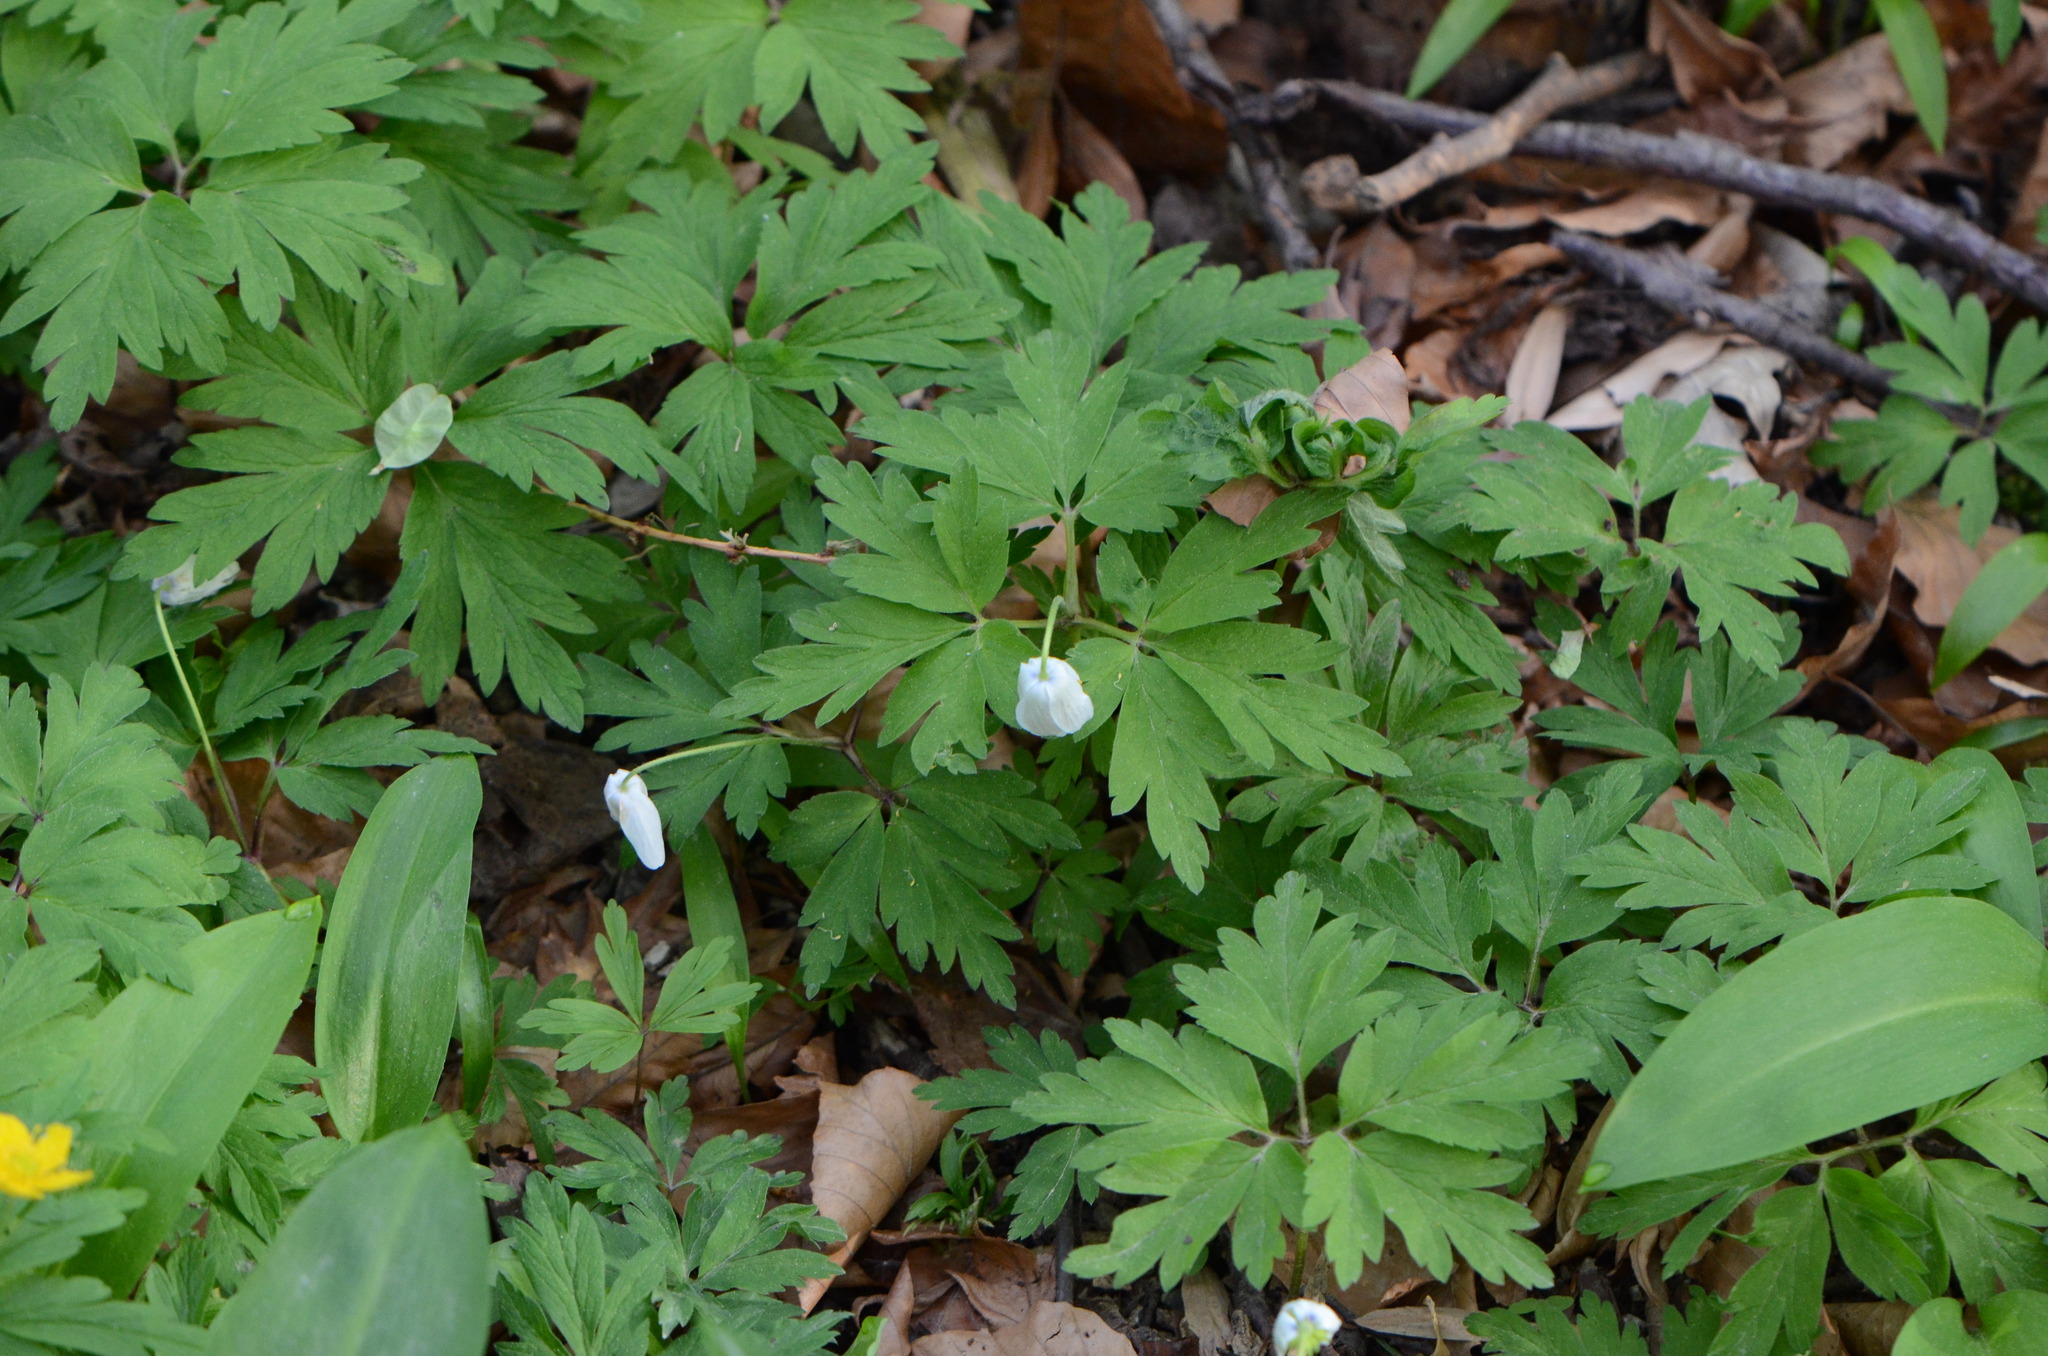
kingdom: Plantae
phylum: Tracheophyta
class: Magnoliopsida
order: Ranunculales
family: Ranunculaceae
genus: Anemone
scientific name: Anemone nemorosa
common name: Wood anemone
